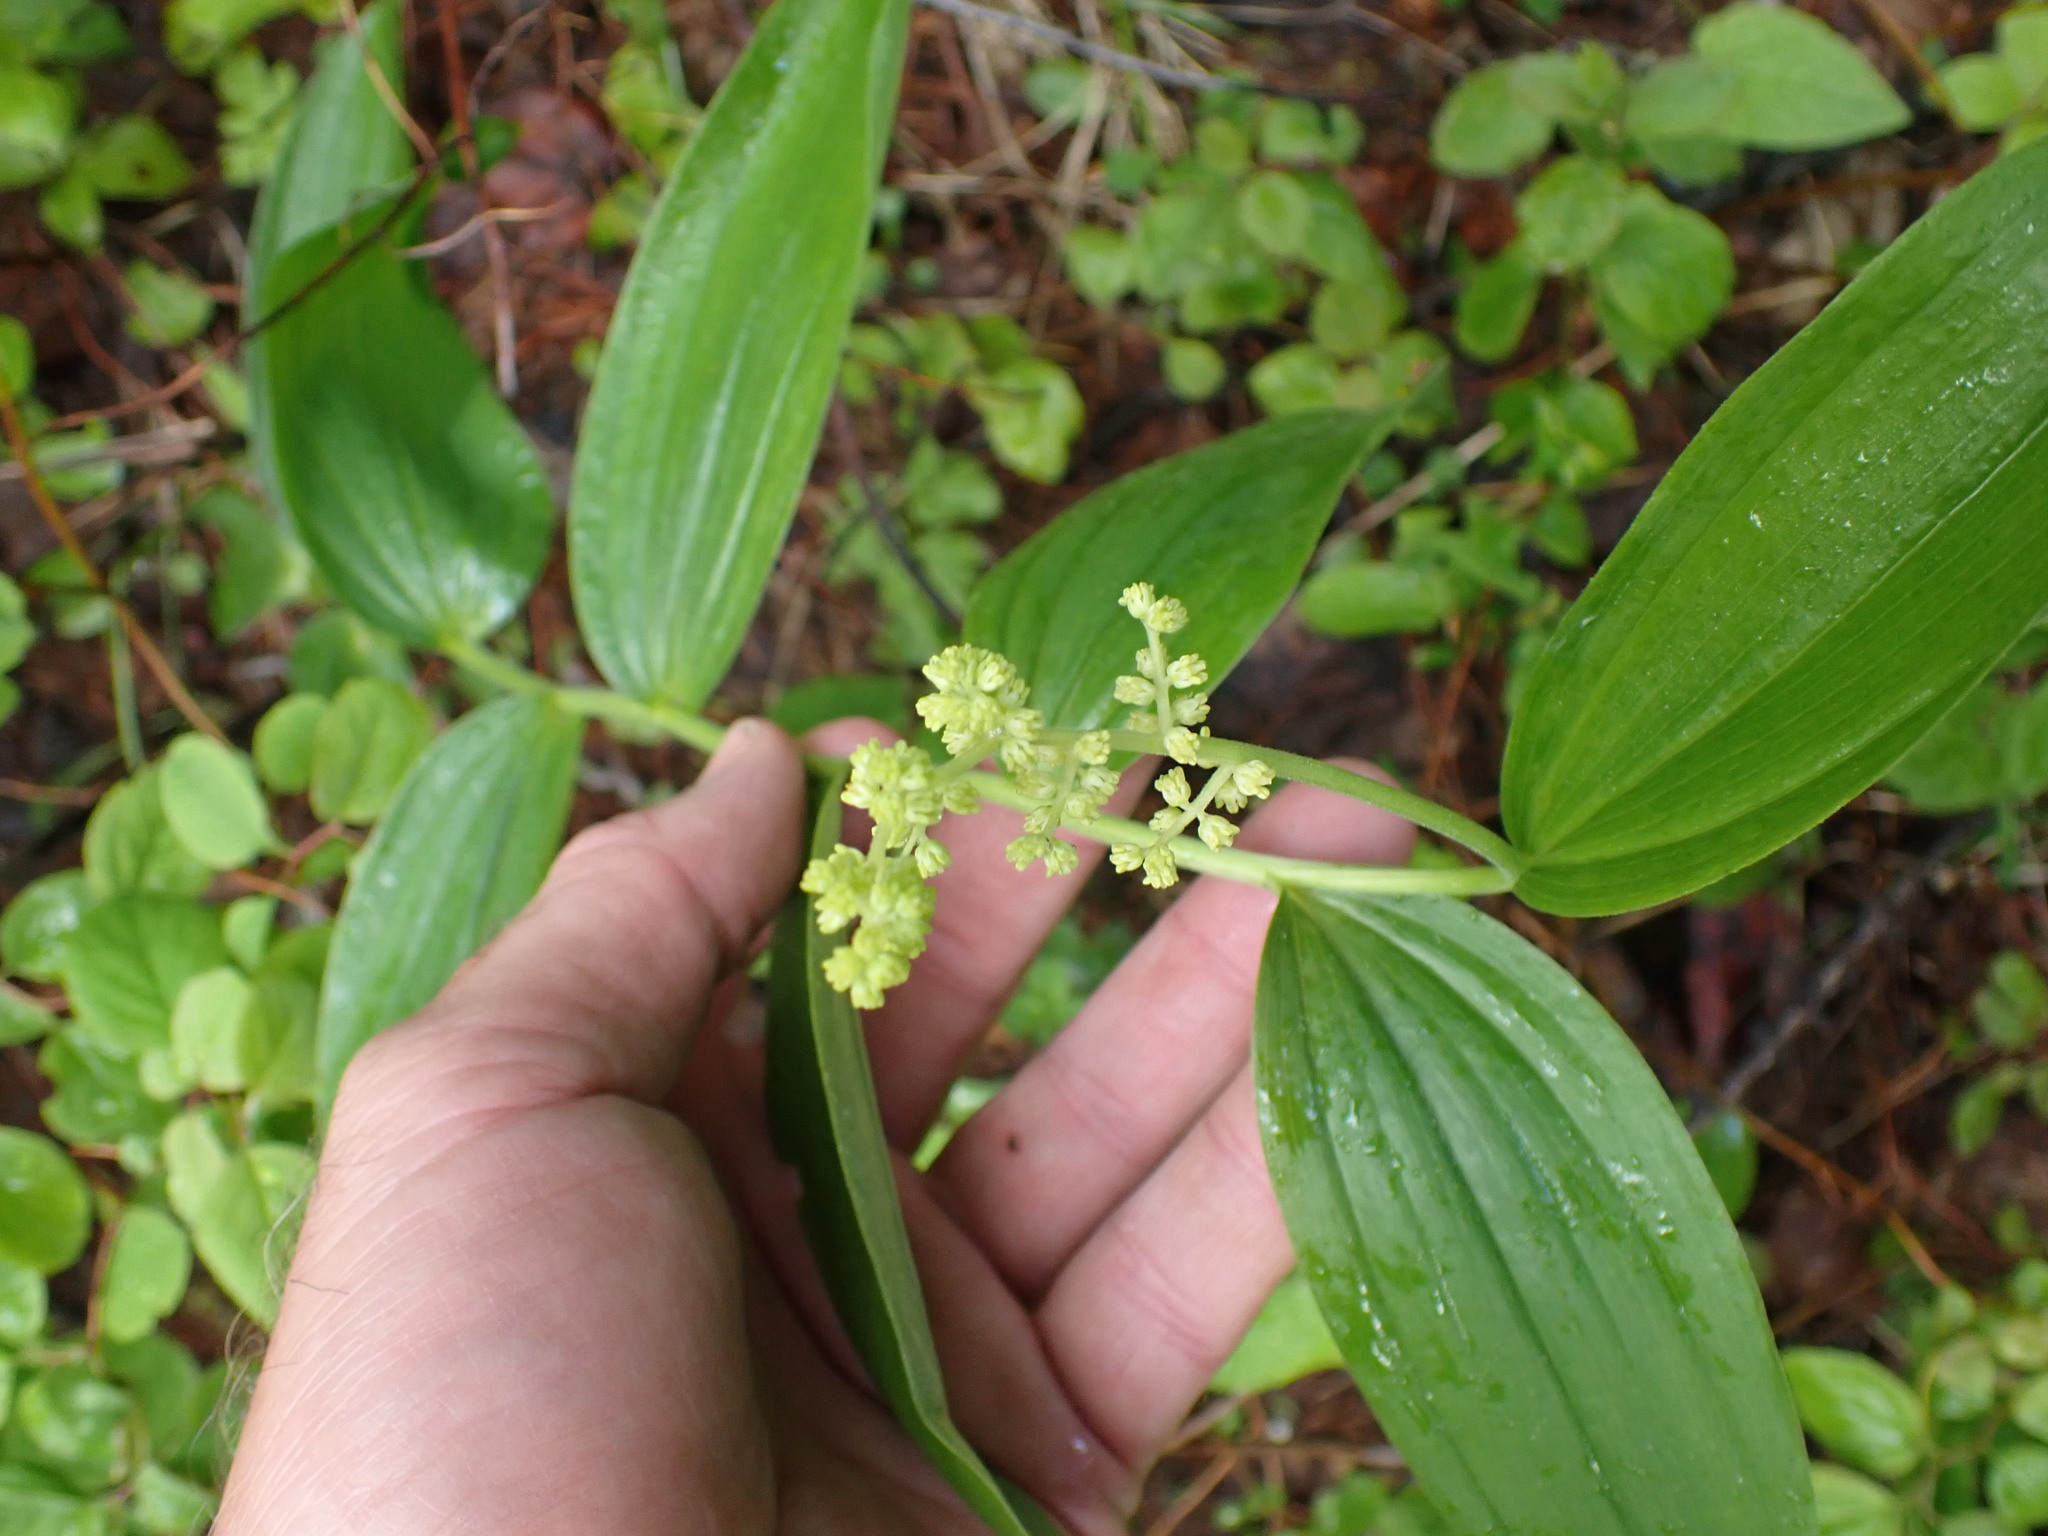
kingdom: Plantae
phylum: Tracheophyta
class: Liliopsida
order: Asparagales
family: Asparagaceae
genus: Maianthemum
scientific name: Maianthemum racemosum
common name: False spikenard
